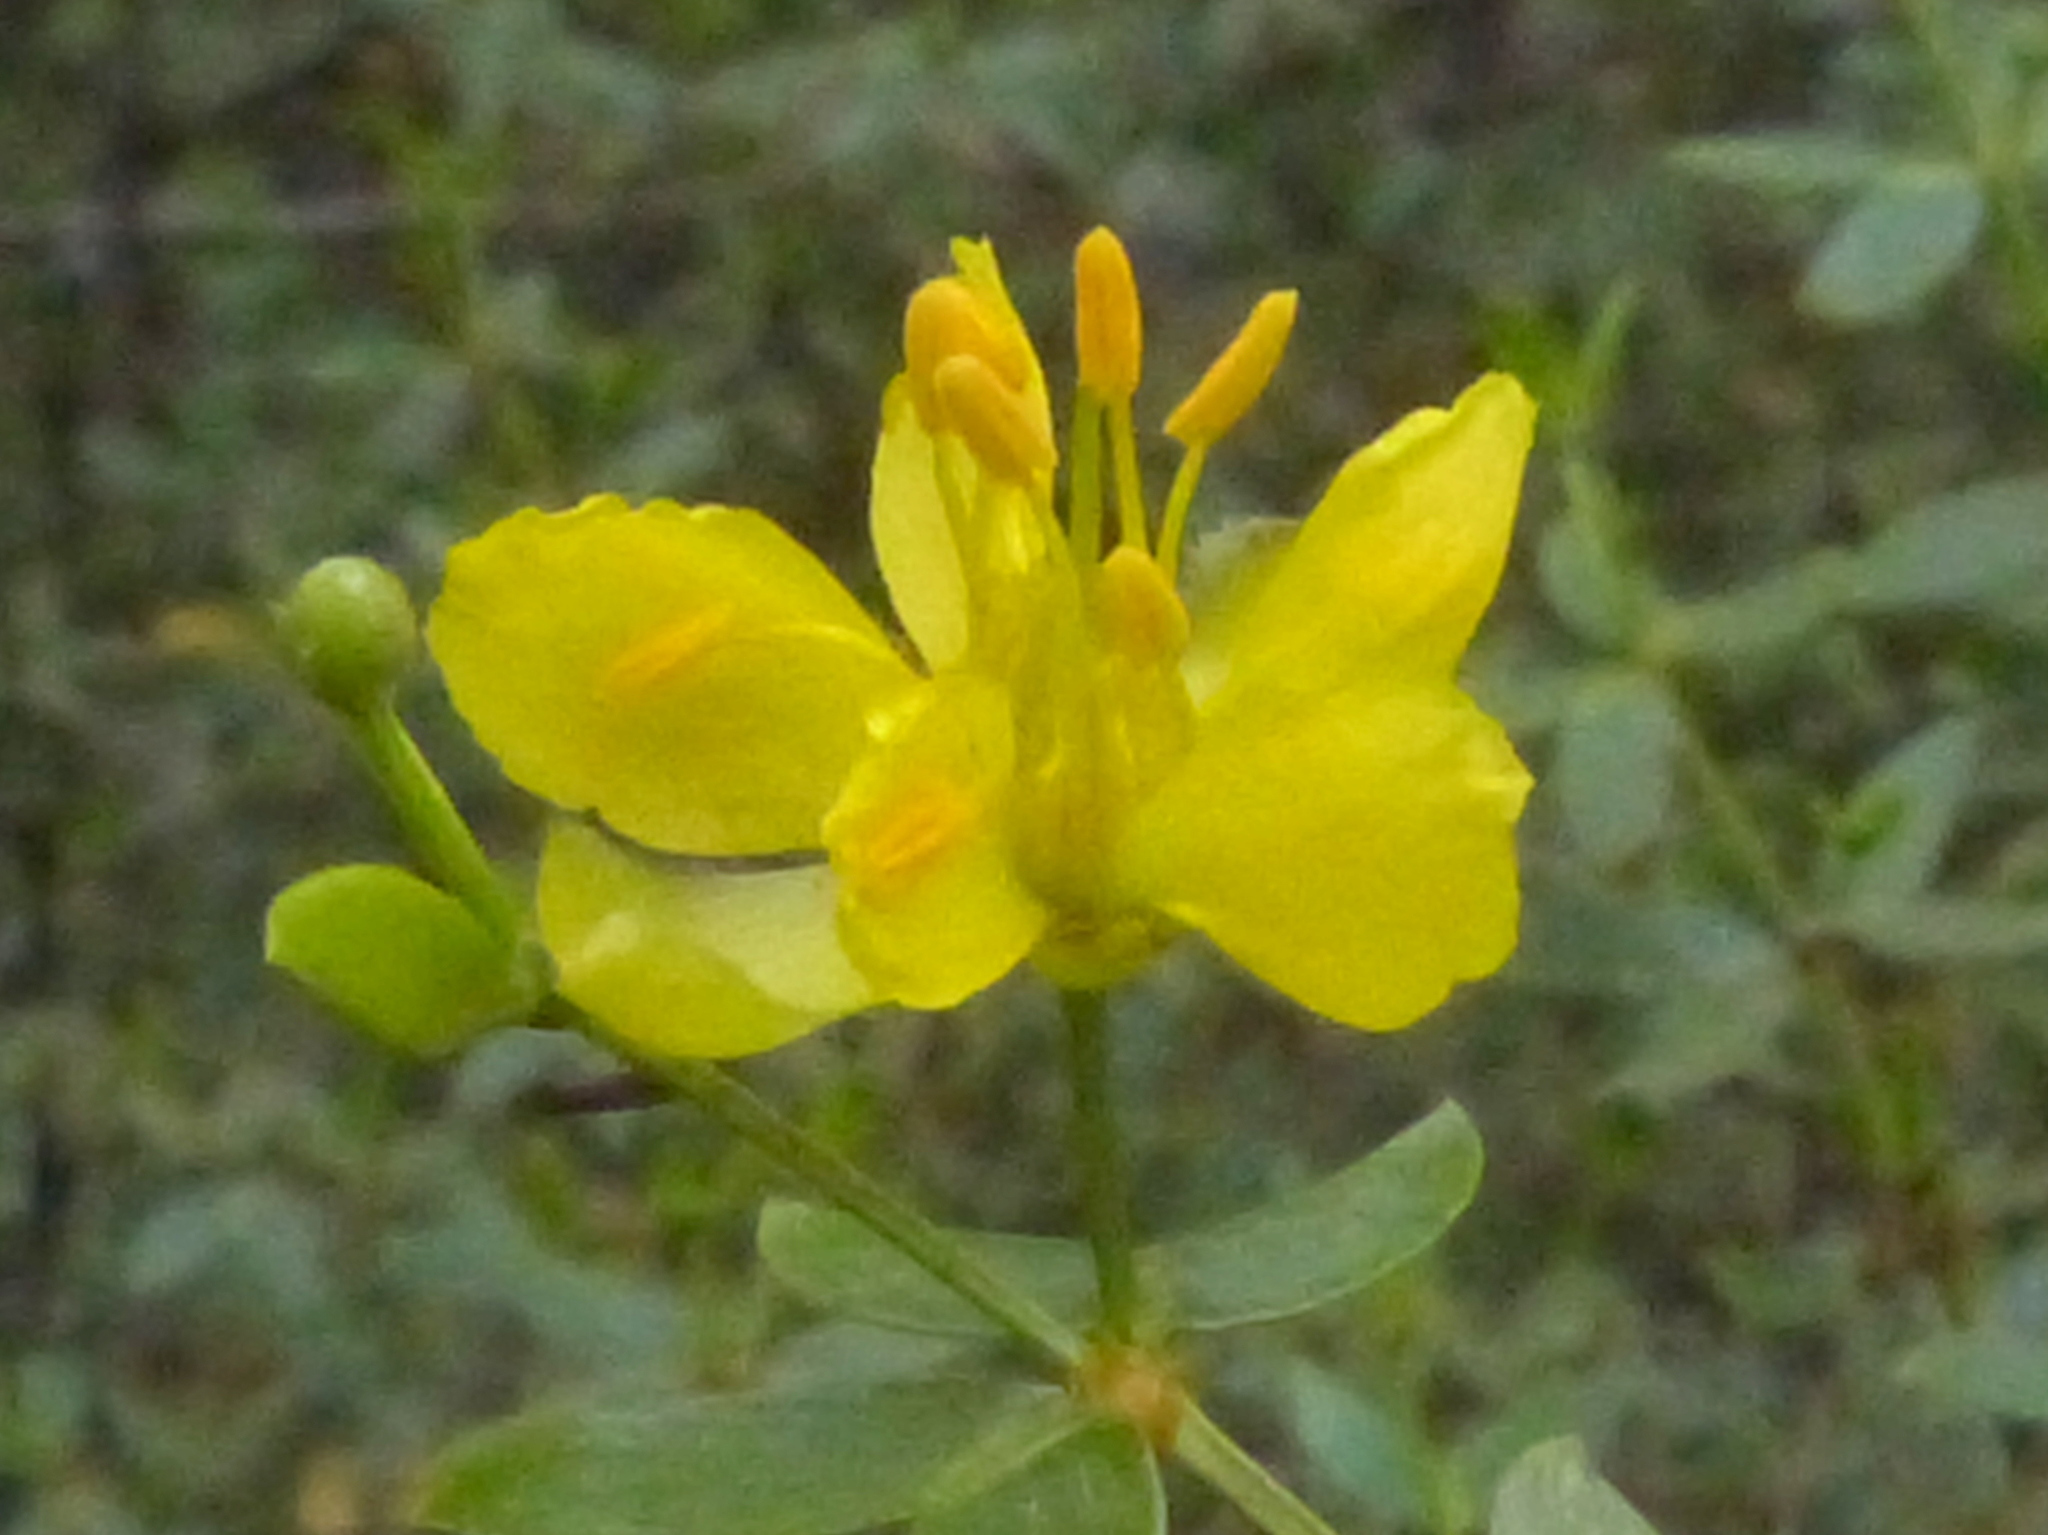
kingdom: Plantae
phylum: Tracheophyta
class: Magnoliopsida
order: Zygophyllales
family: Zygophyllaceae
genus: Larrea
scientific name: Larrea divaricata
